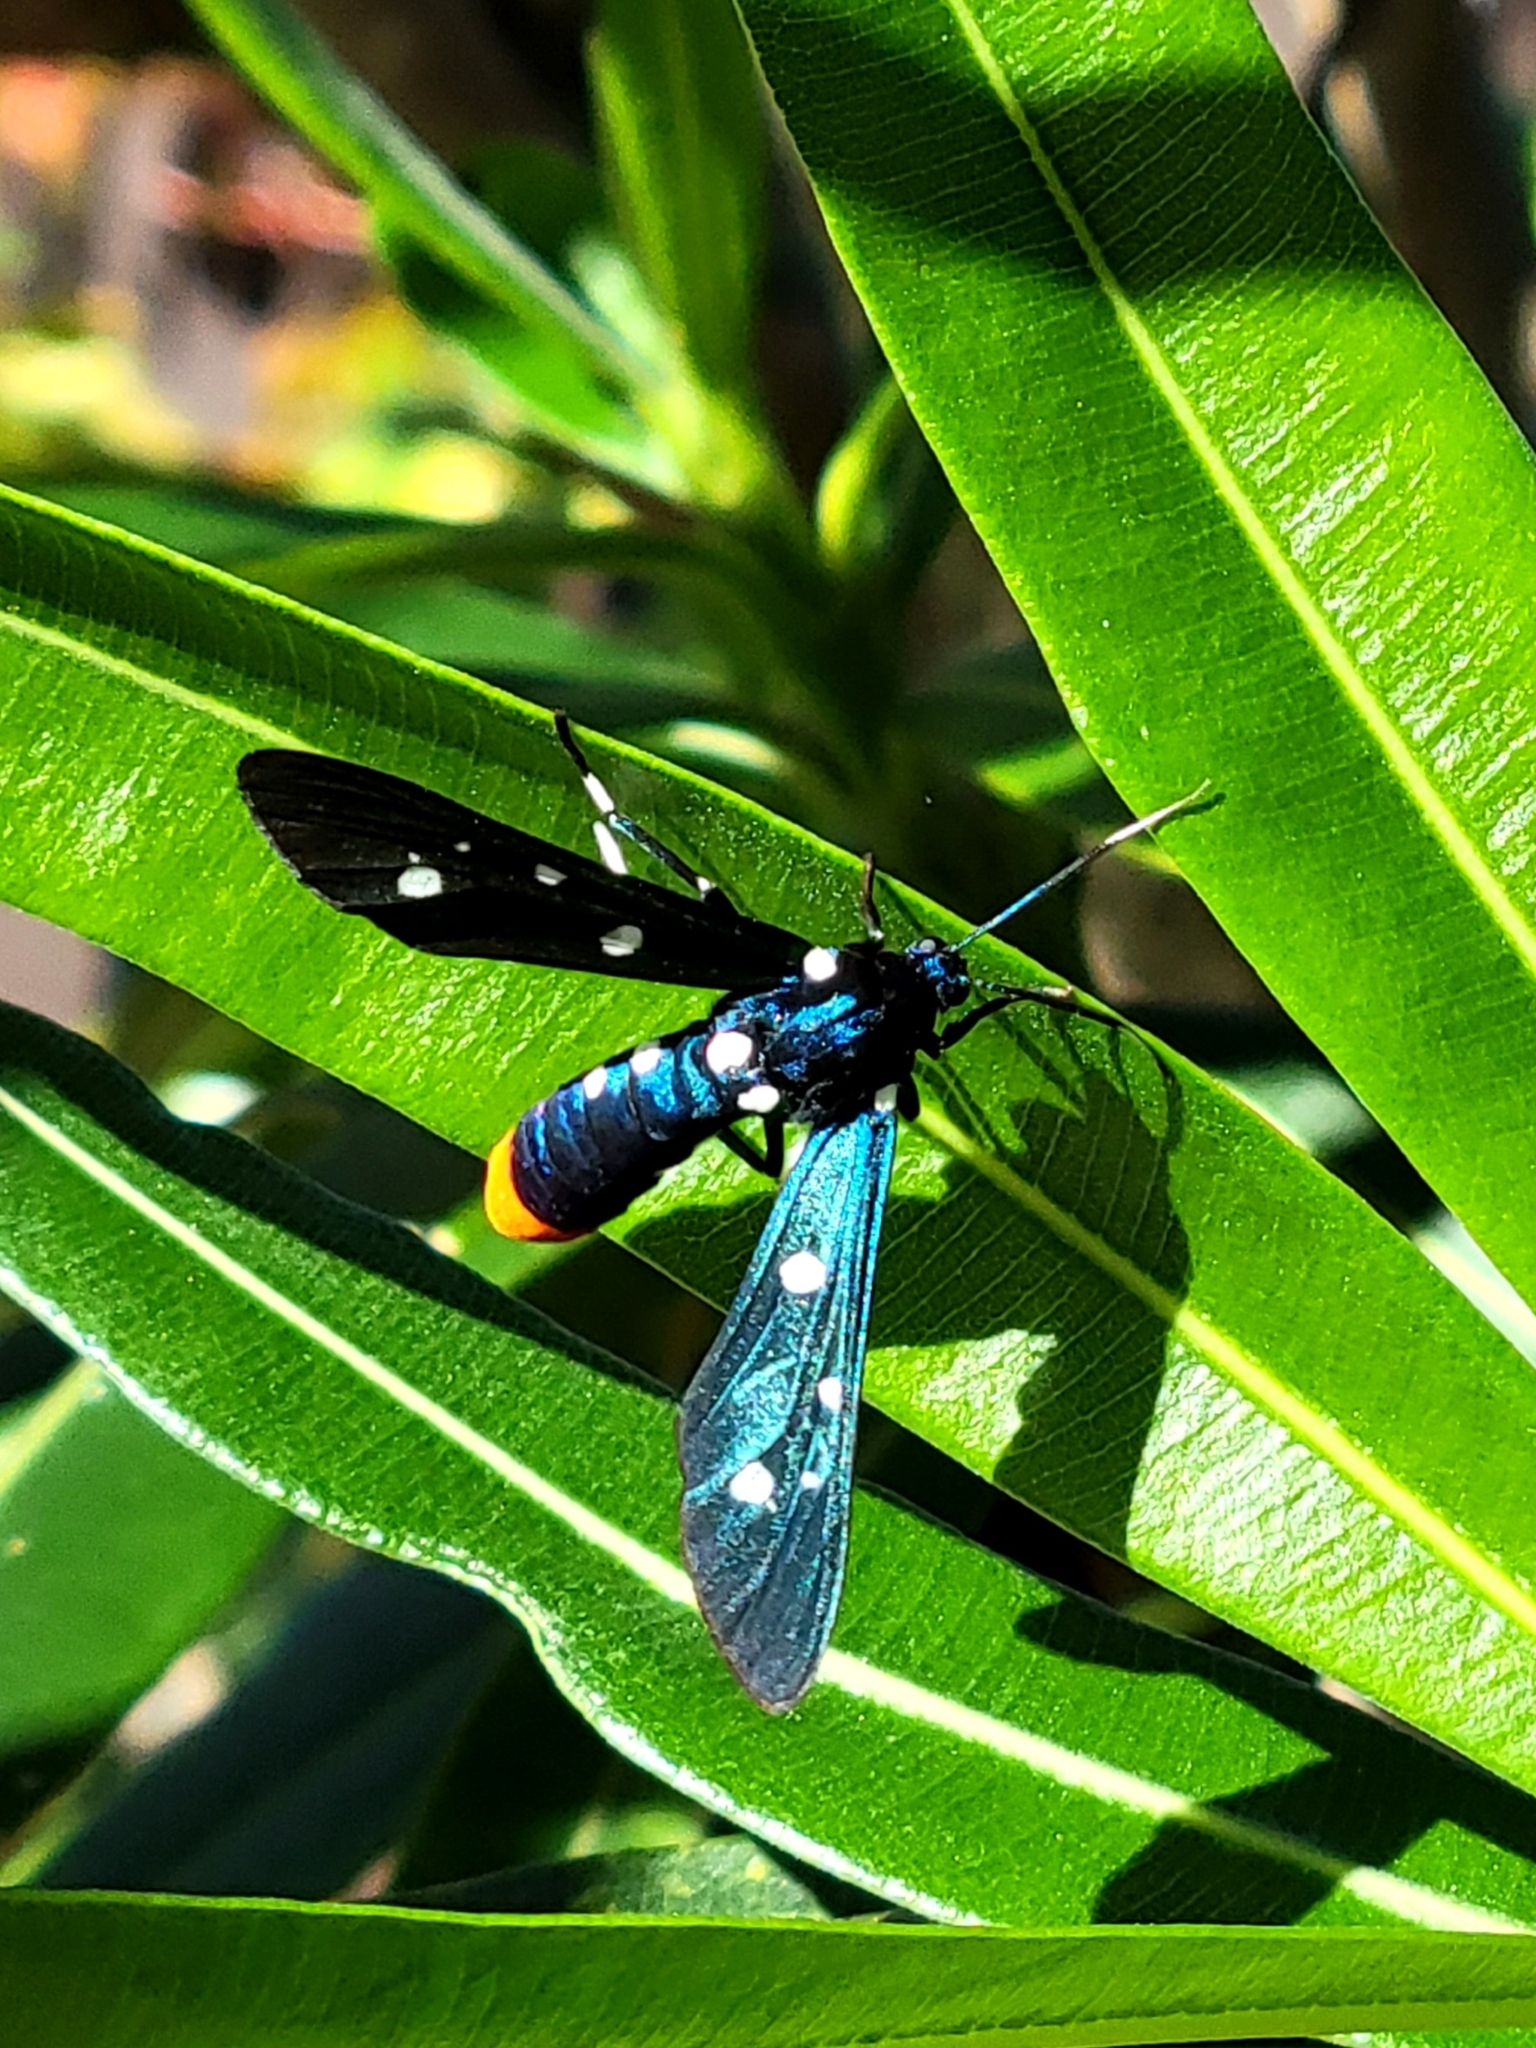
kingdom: Animalia
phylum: Arthropoda
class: Insecta
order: Lepidoptera
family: Erebidae
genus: Syntomeida
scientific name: Syntomeida epilais
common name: Polka-dot wasp moth
